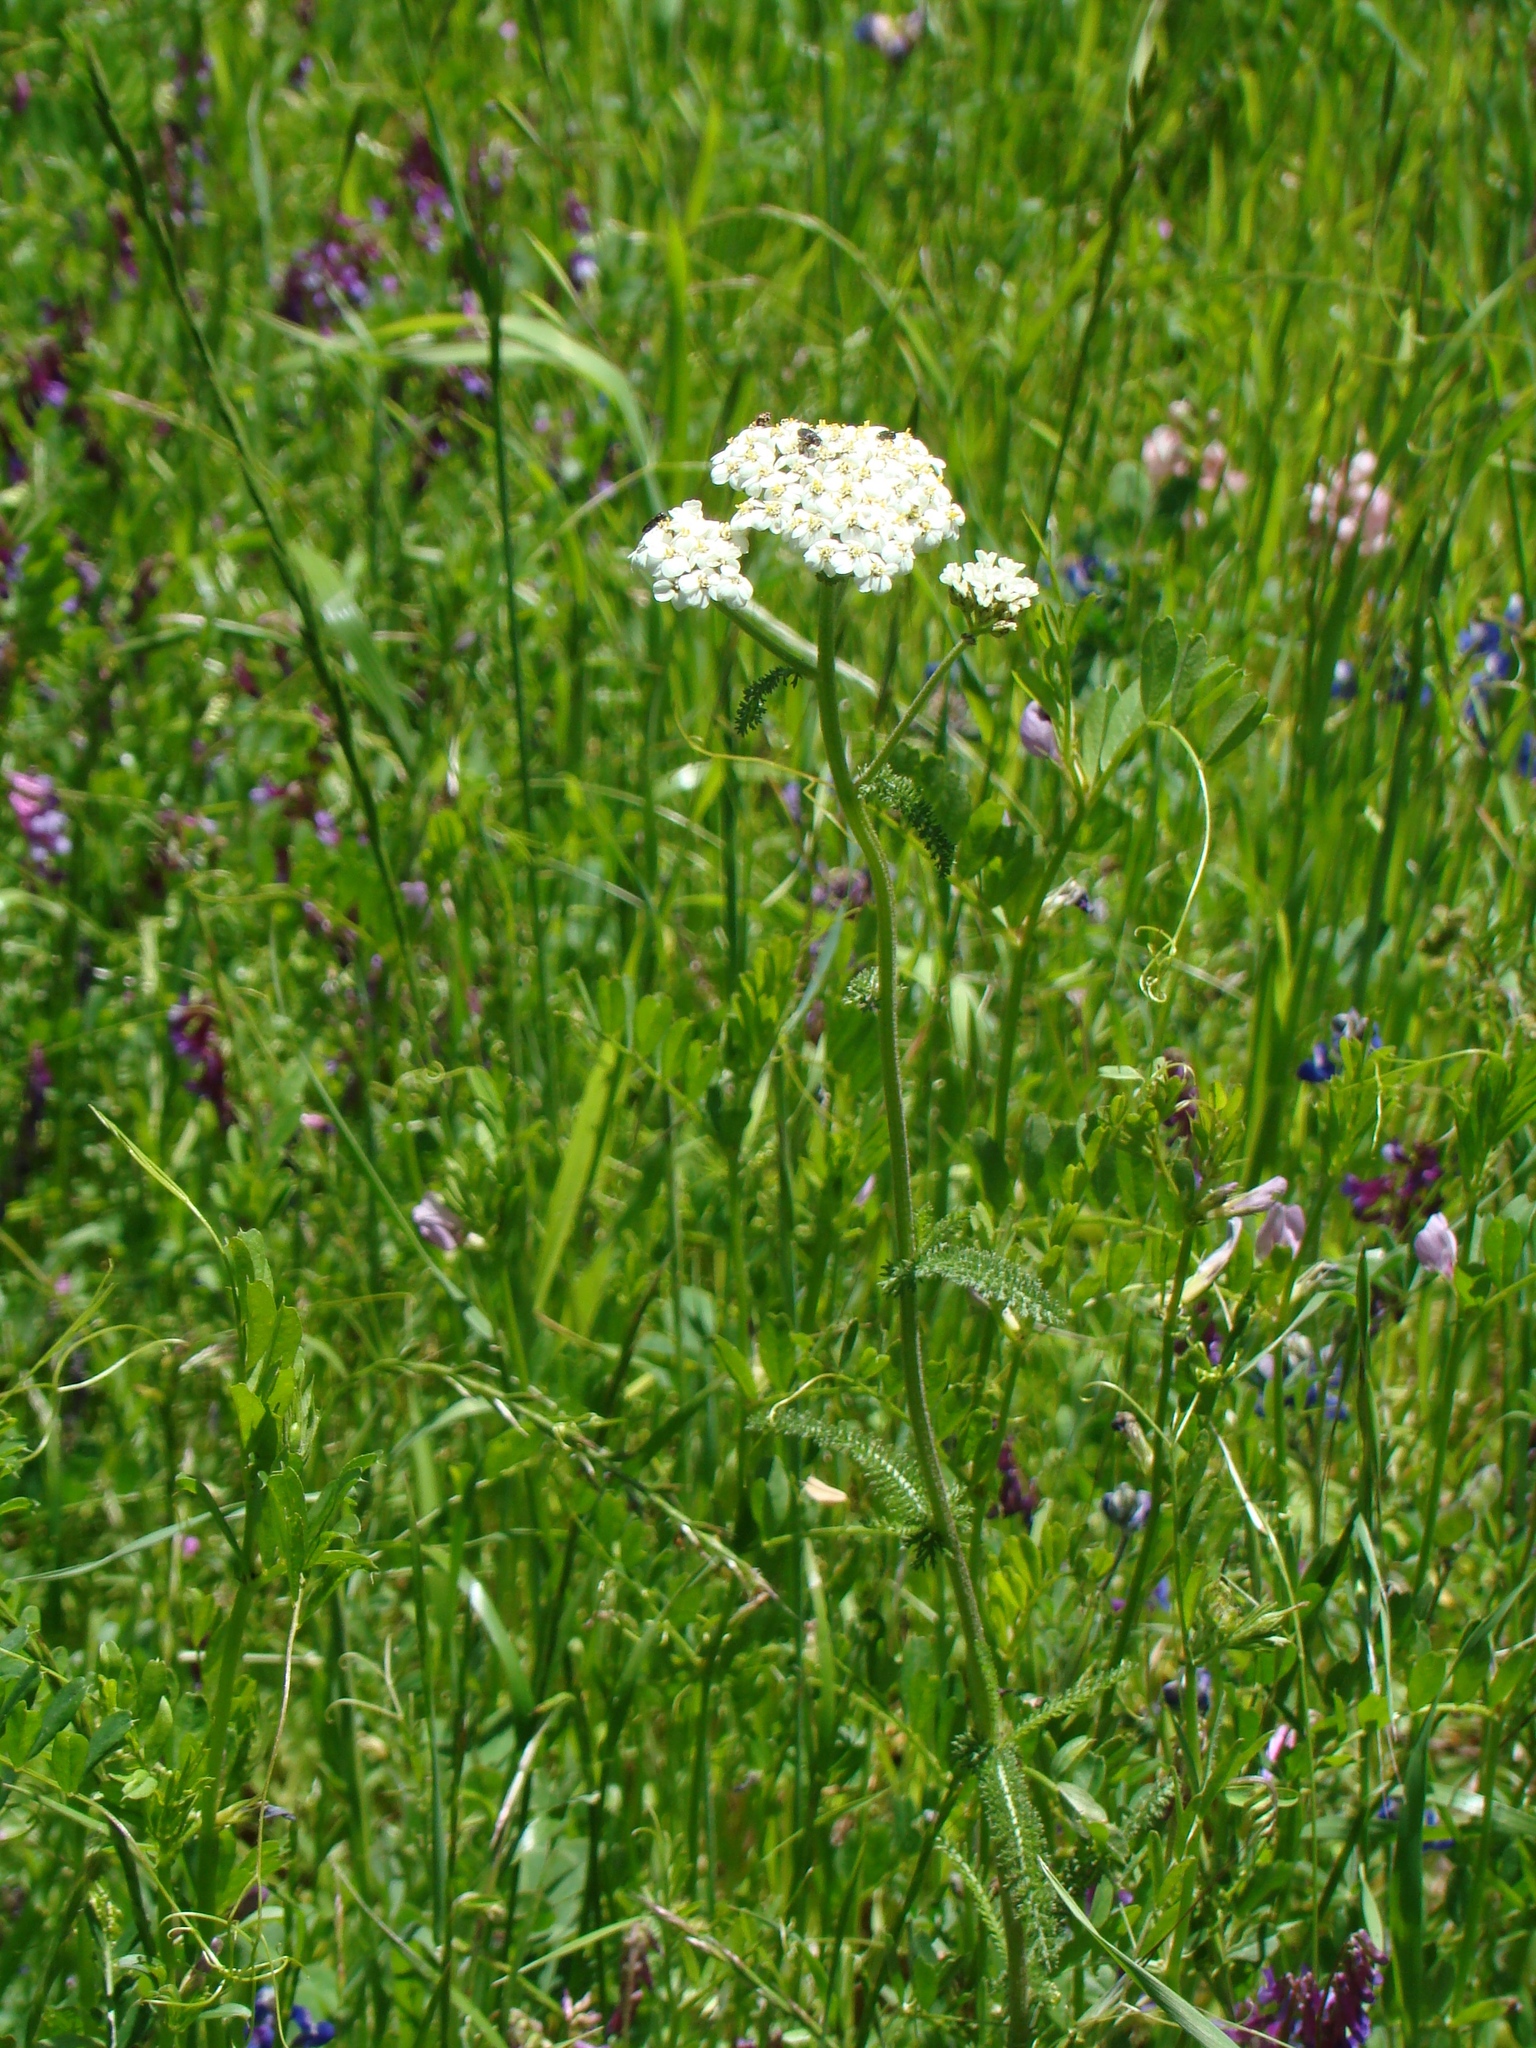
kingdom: Plantae
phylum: Tracheophyta
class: Magnoliopsida
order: Asterales
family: Asteraceae
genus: Achillea
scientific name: Achillea millefolium
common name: Yarrow
